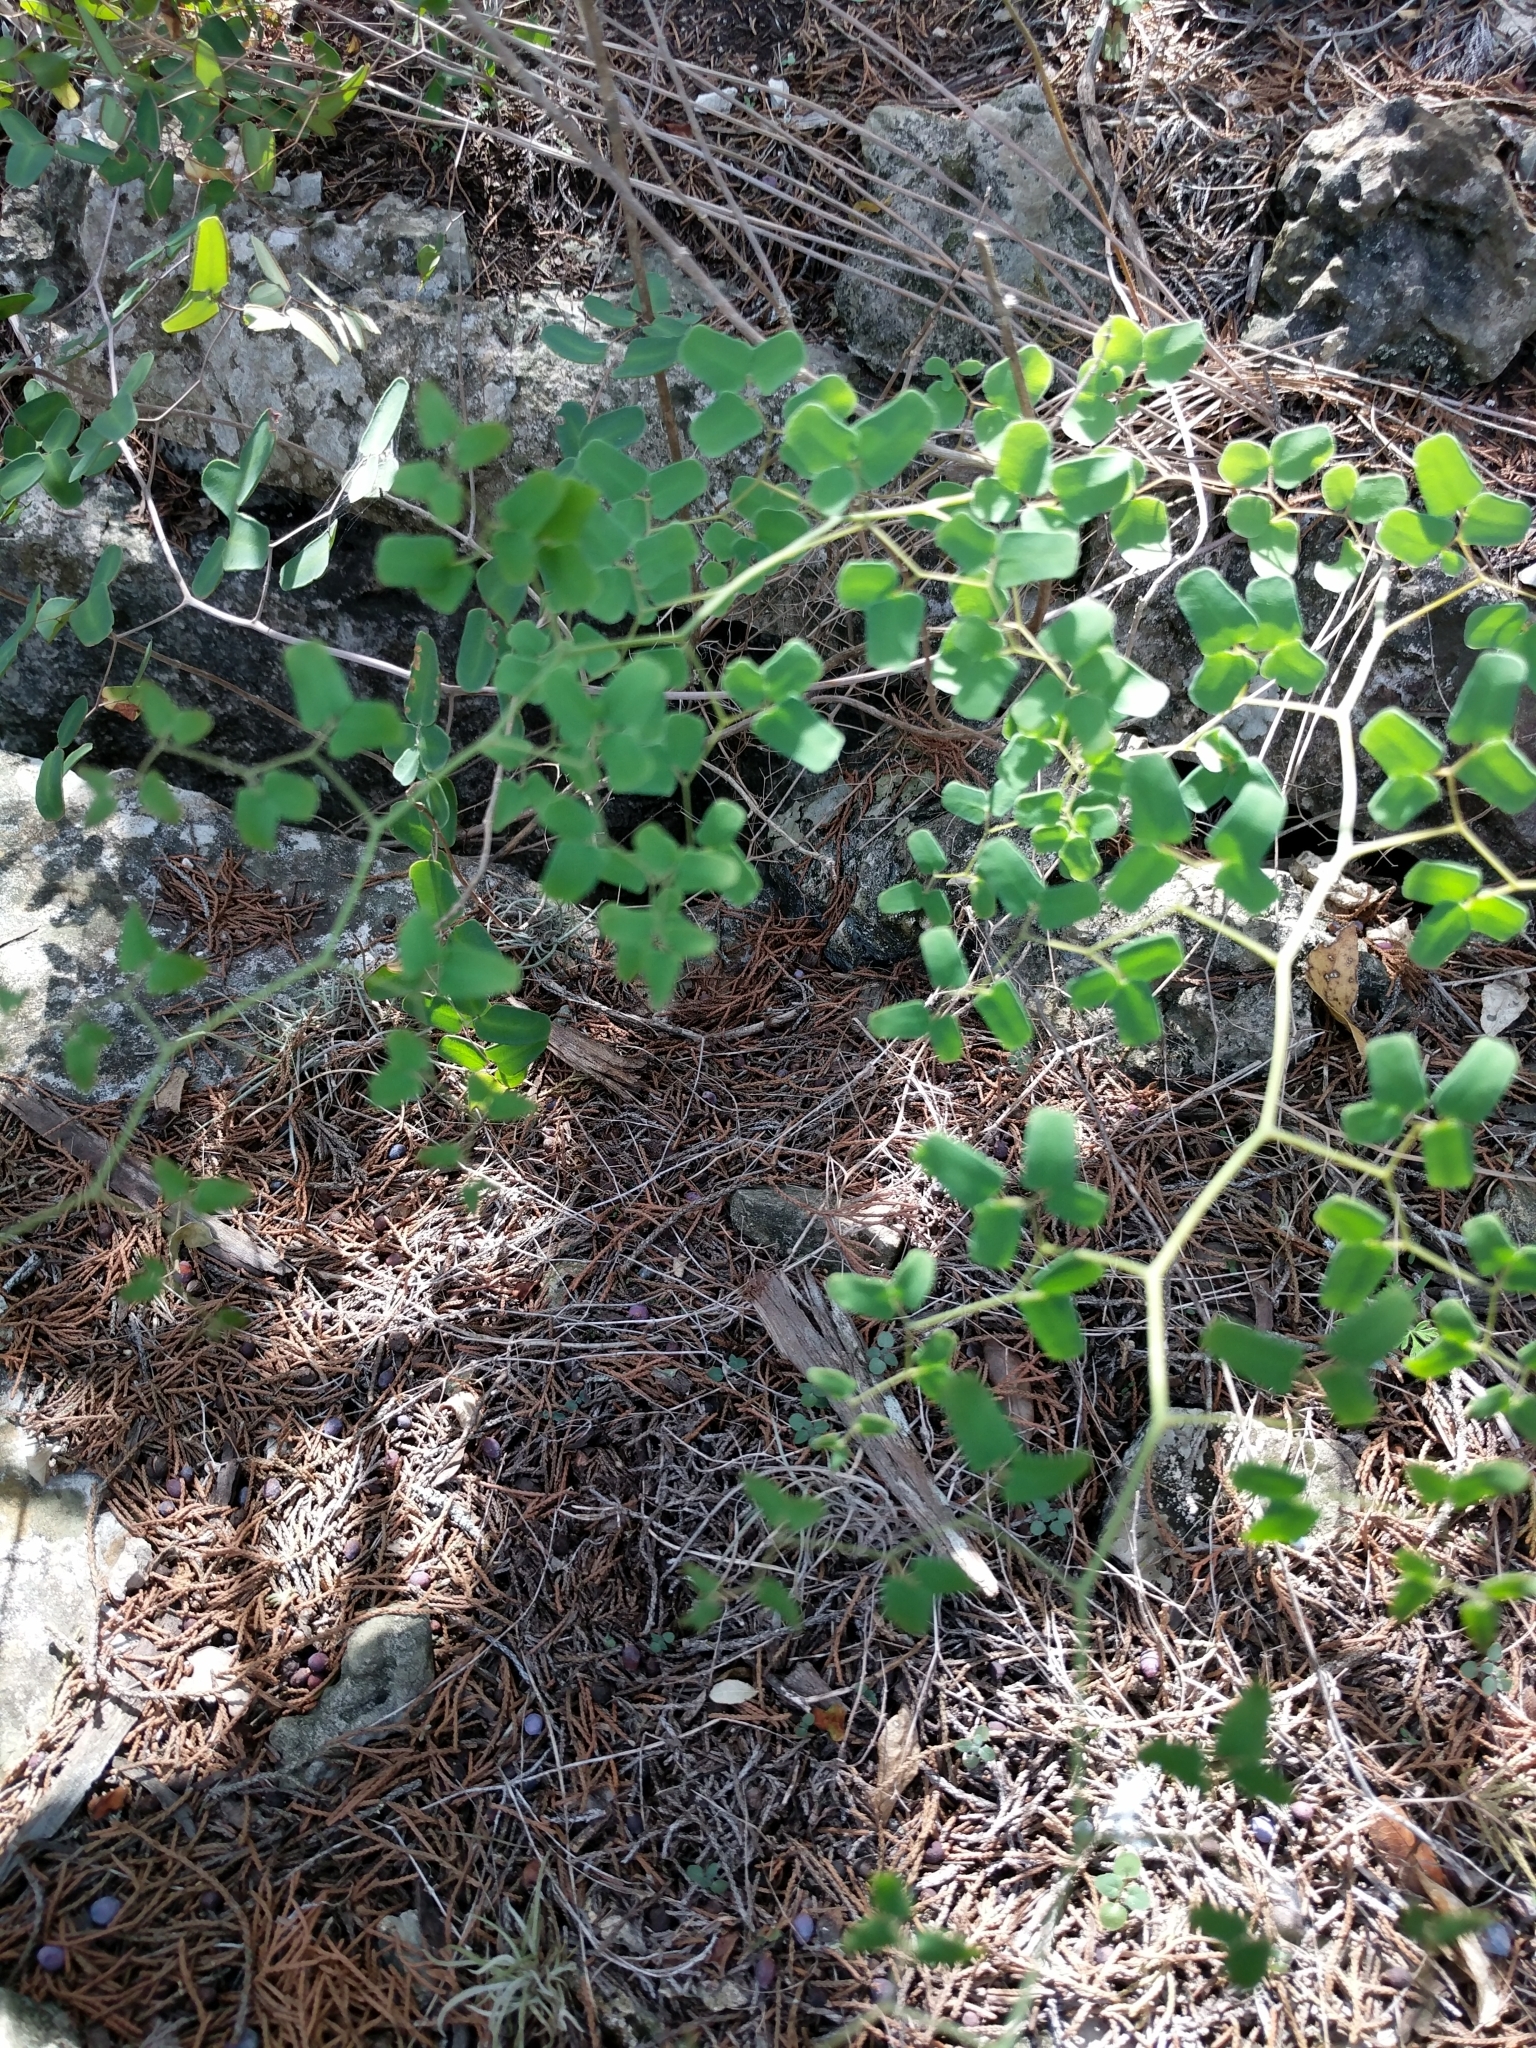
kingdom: Plantae
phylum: Tracheophyta
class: Polypodiopsida
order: Polypodiales
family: Pteridaceae
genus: Pellaea
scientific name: Pellaea ovata
